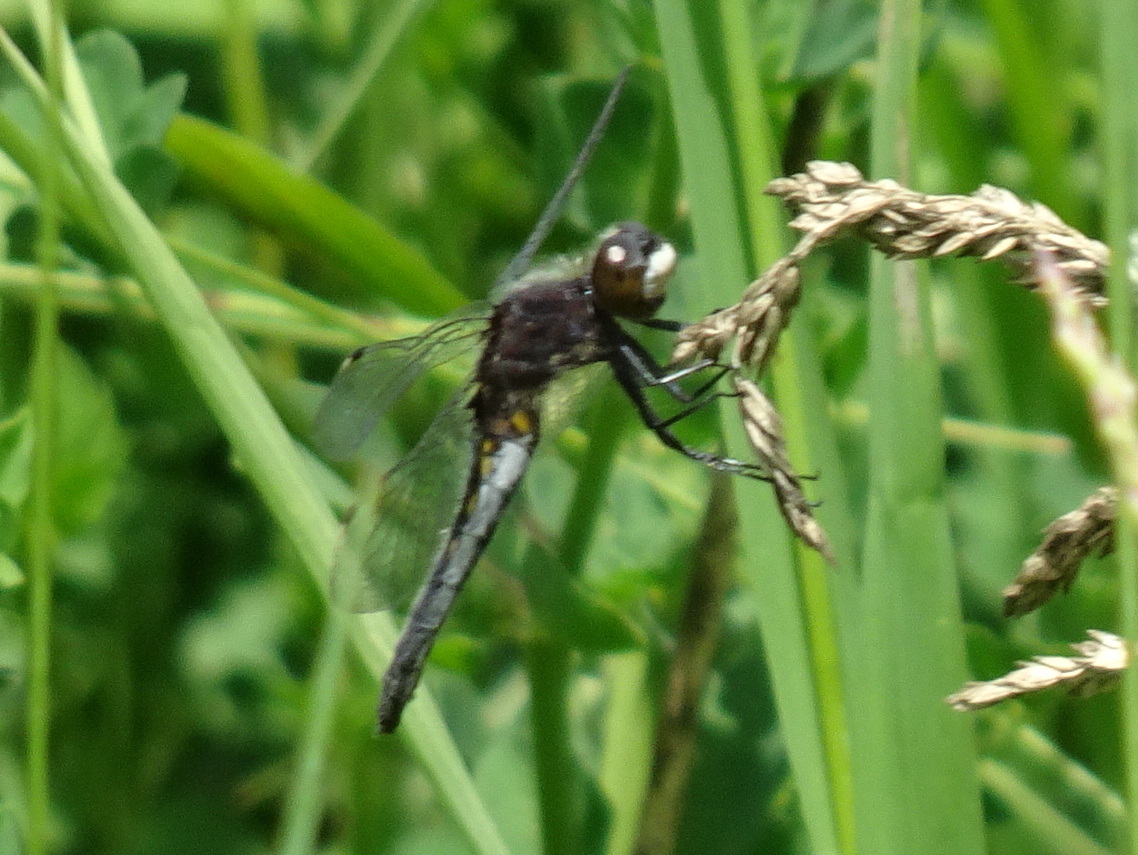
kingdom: Animalia
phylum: Arthropoda
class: Insecta
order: Odonata
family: Libellulidae
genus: Leucorrhinia
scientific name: Leucorrhinia intacta
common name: Dot-tailed whiteface
